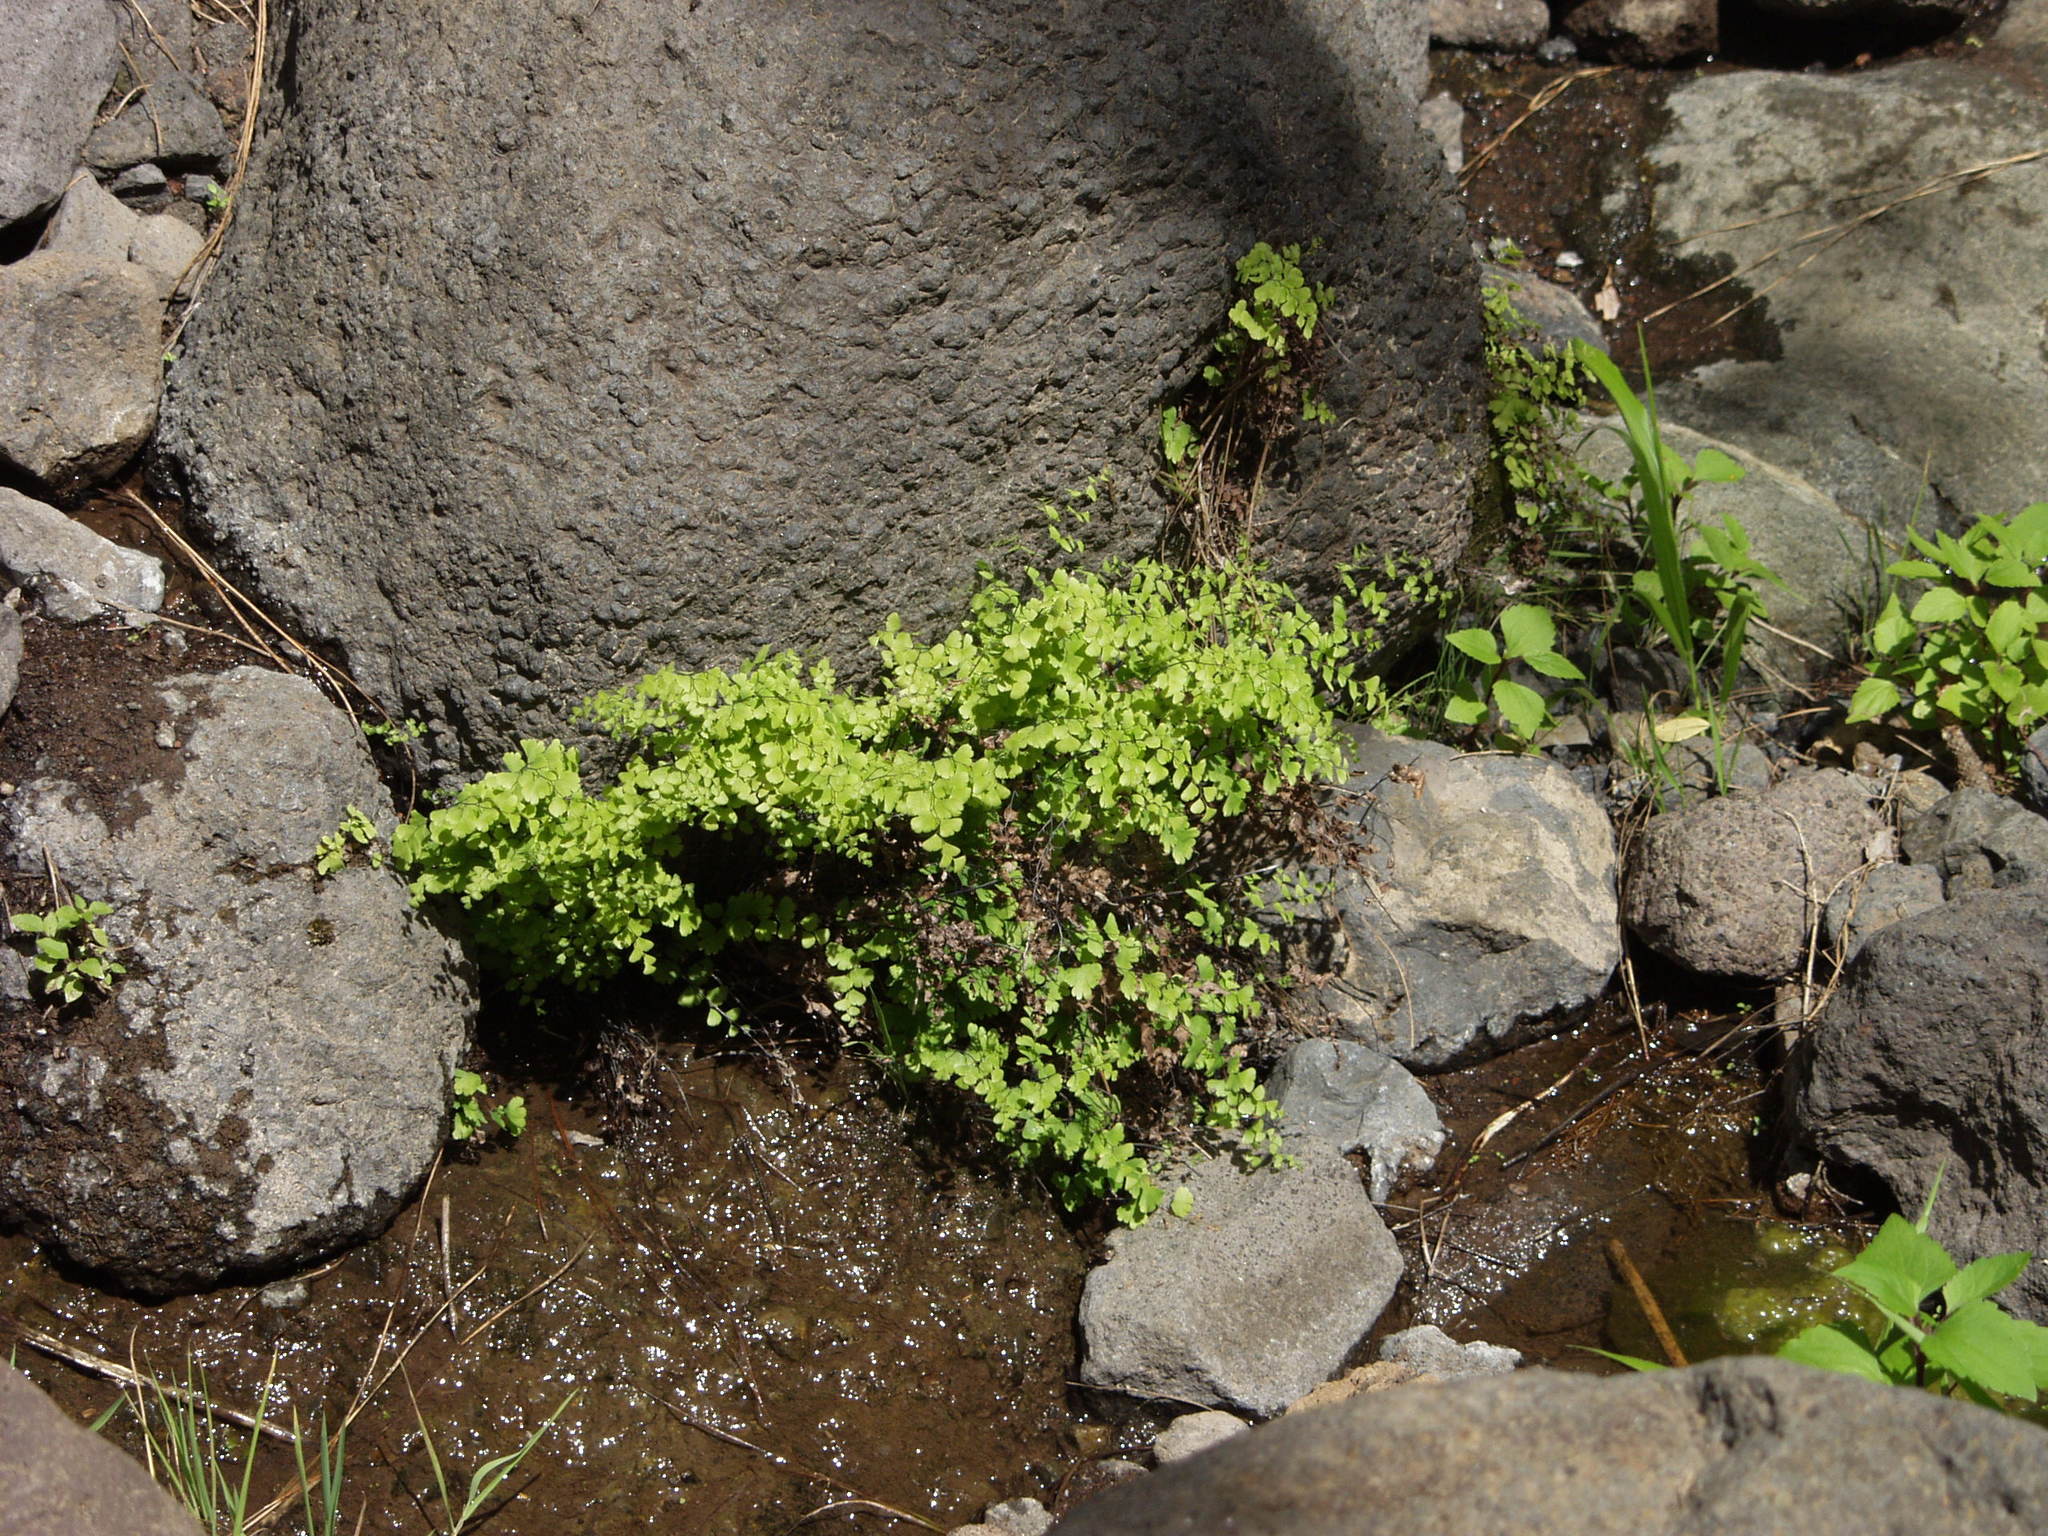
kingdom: Plantae
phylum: Tracheophyta
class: Polypodiopsida
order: Polypodiales
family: Pteridaceae
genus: Adiantum
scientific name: Adiantum capillus-veneris
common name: Maidenhair fern
